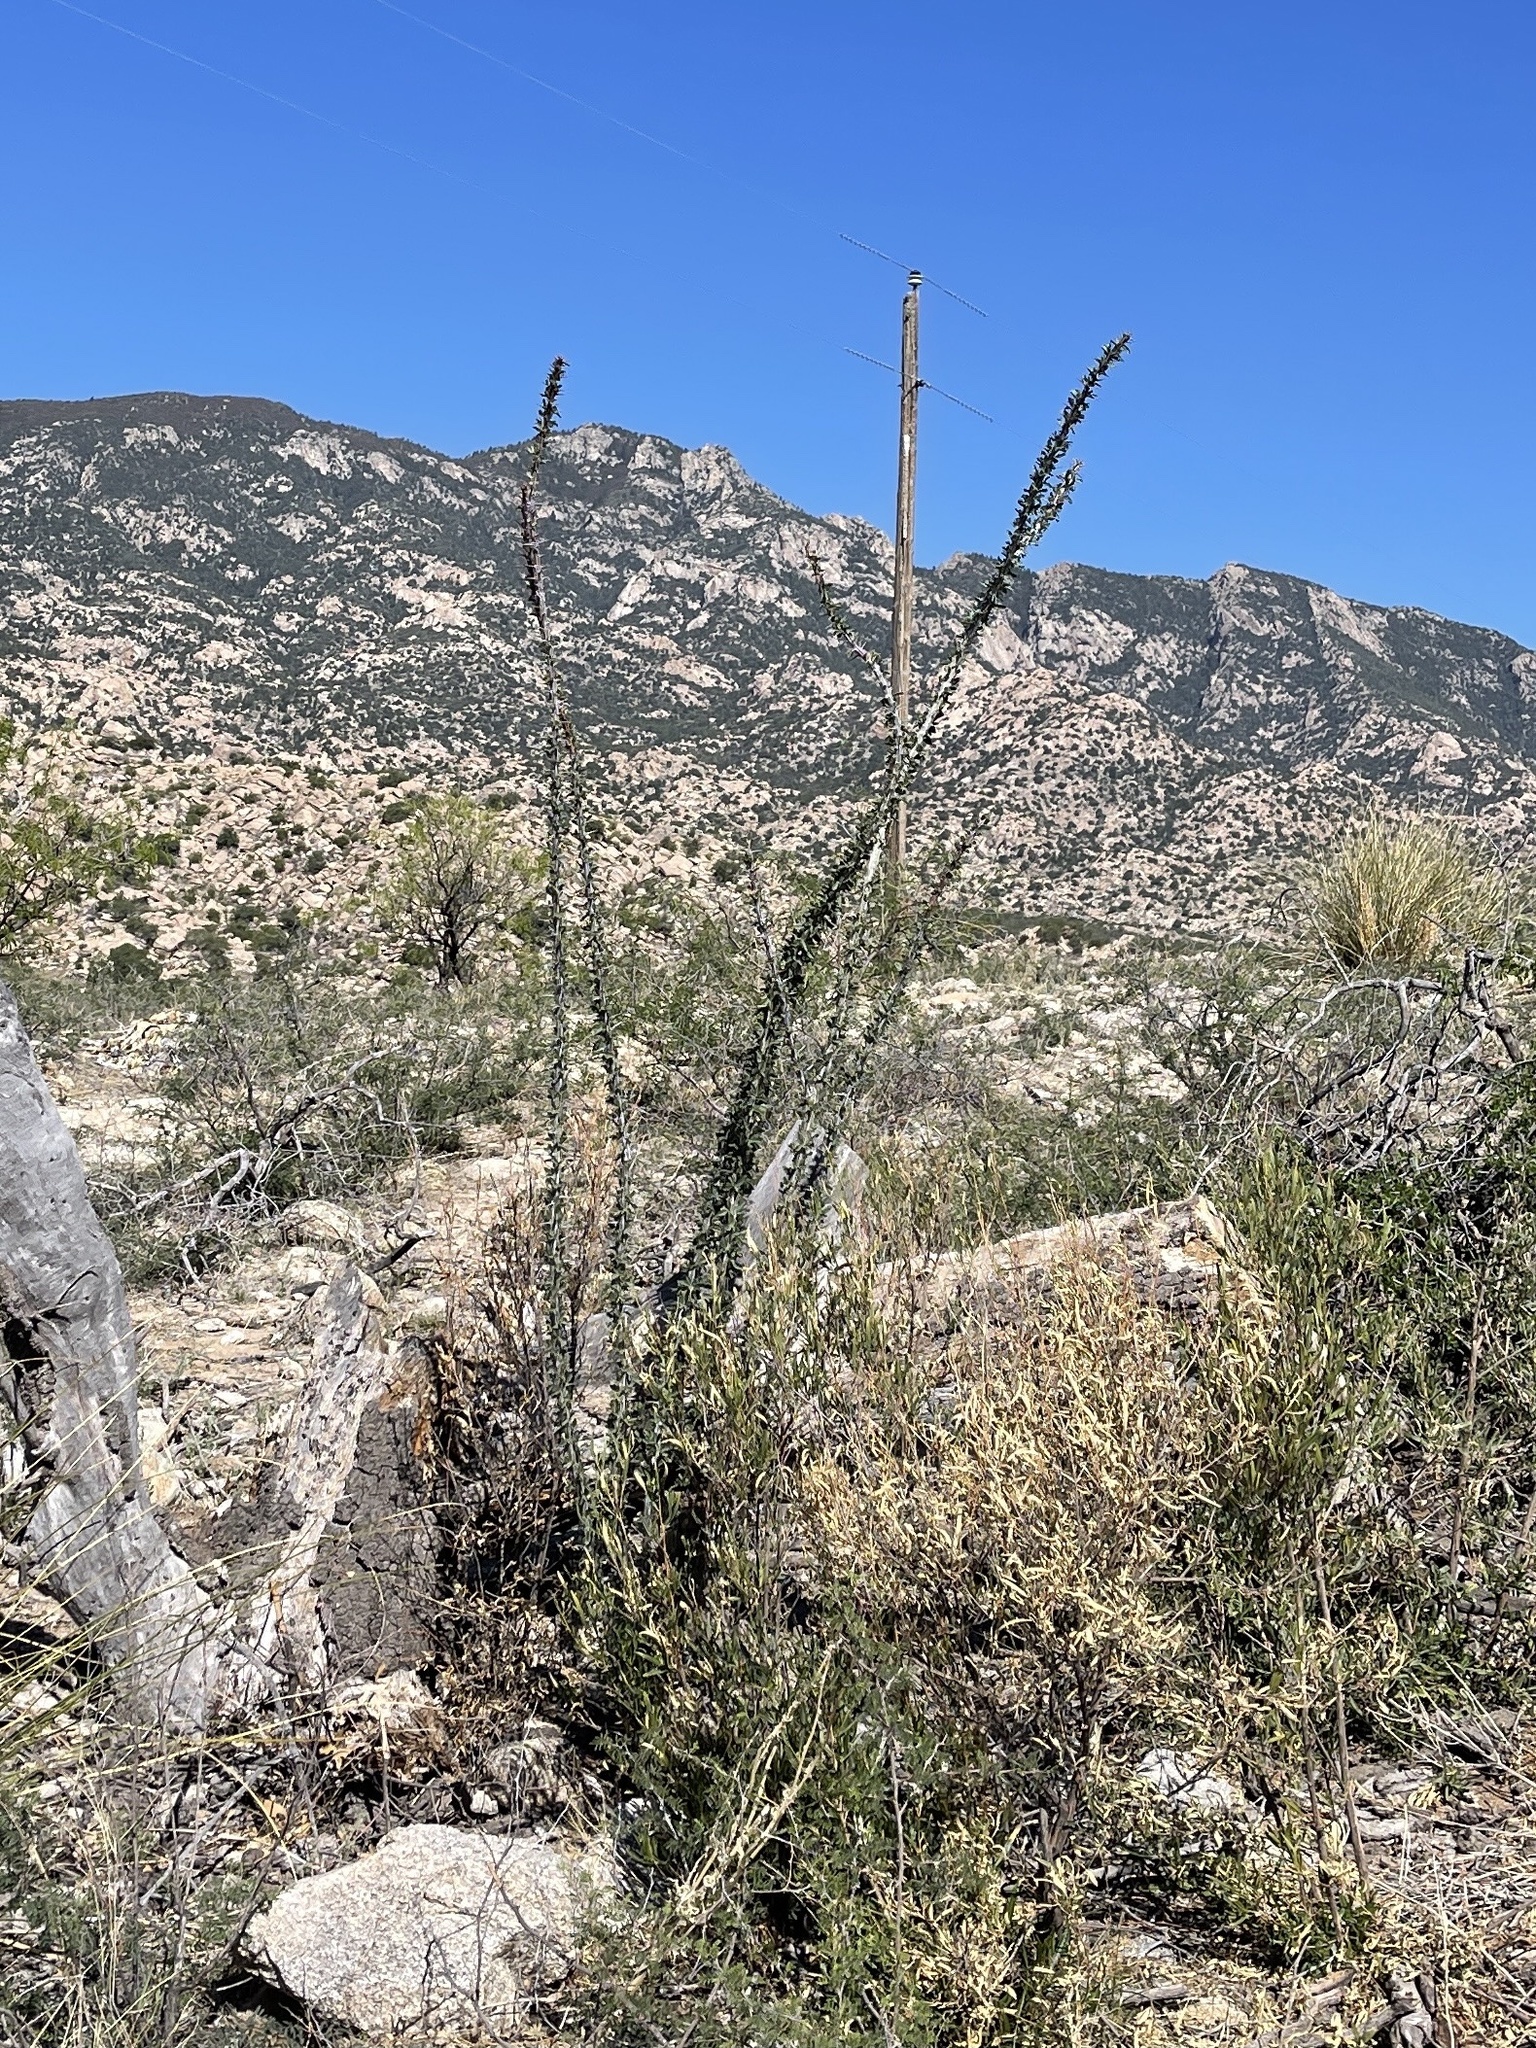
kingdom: Plantae
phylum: Tracheophyta
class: Magnoliopsida
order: Ericales
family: Fouquieriaceae
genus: Fouquieria
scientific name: Fouquieria splendens
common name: Vine-cactus
